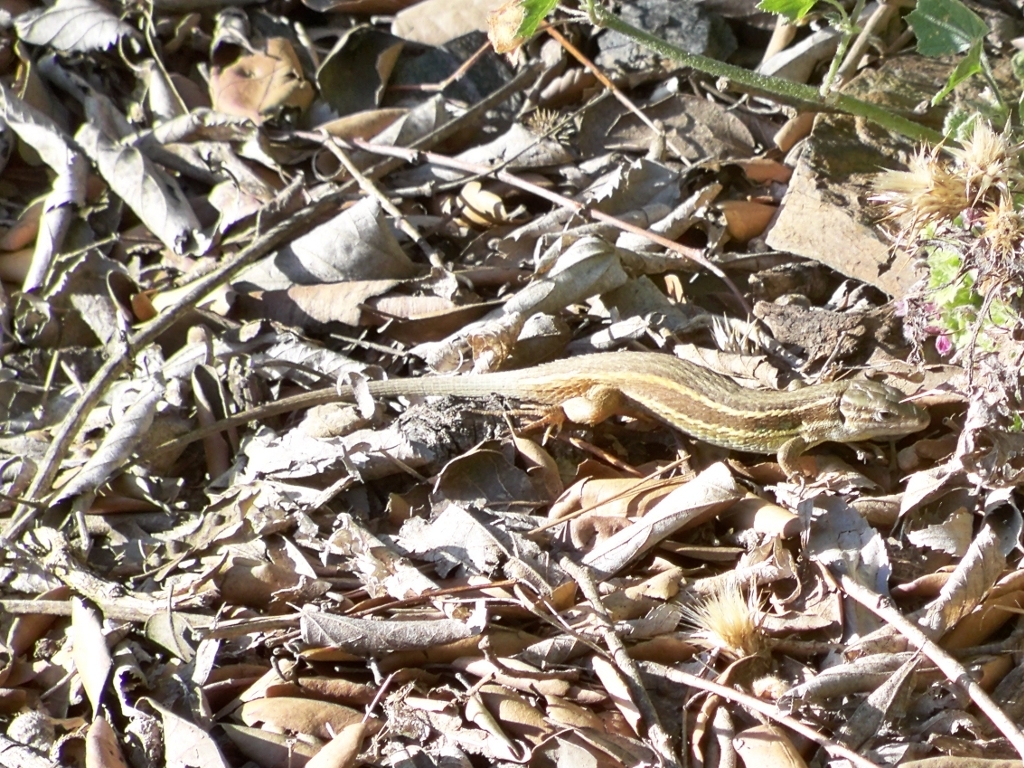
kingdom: Animalia
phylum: Chordata
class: Squamata
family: Lacertidae
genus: Psammodromus
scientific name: Psammodromus algirus
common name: Algerian psammodromus
